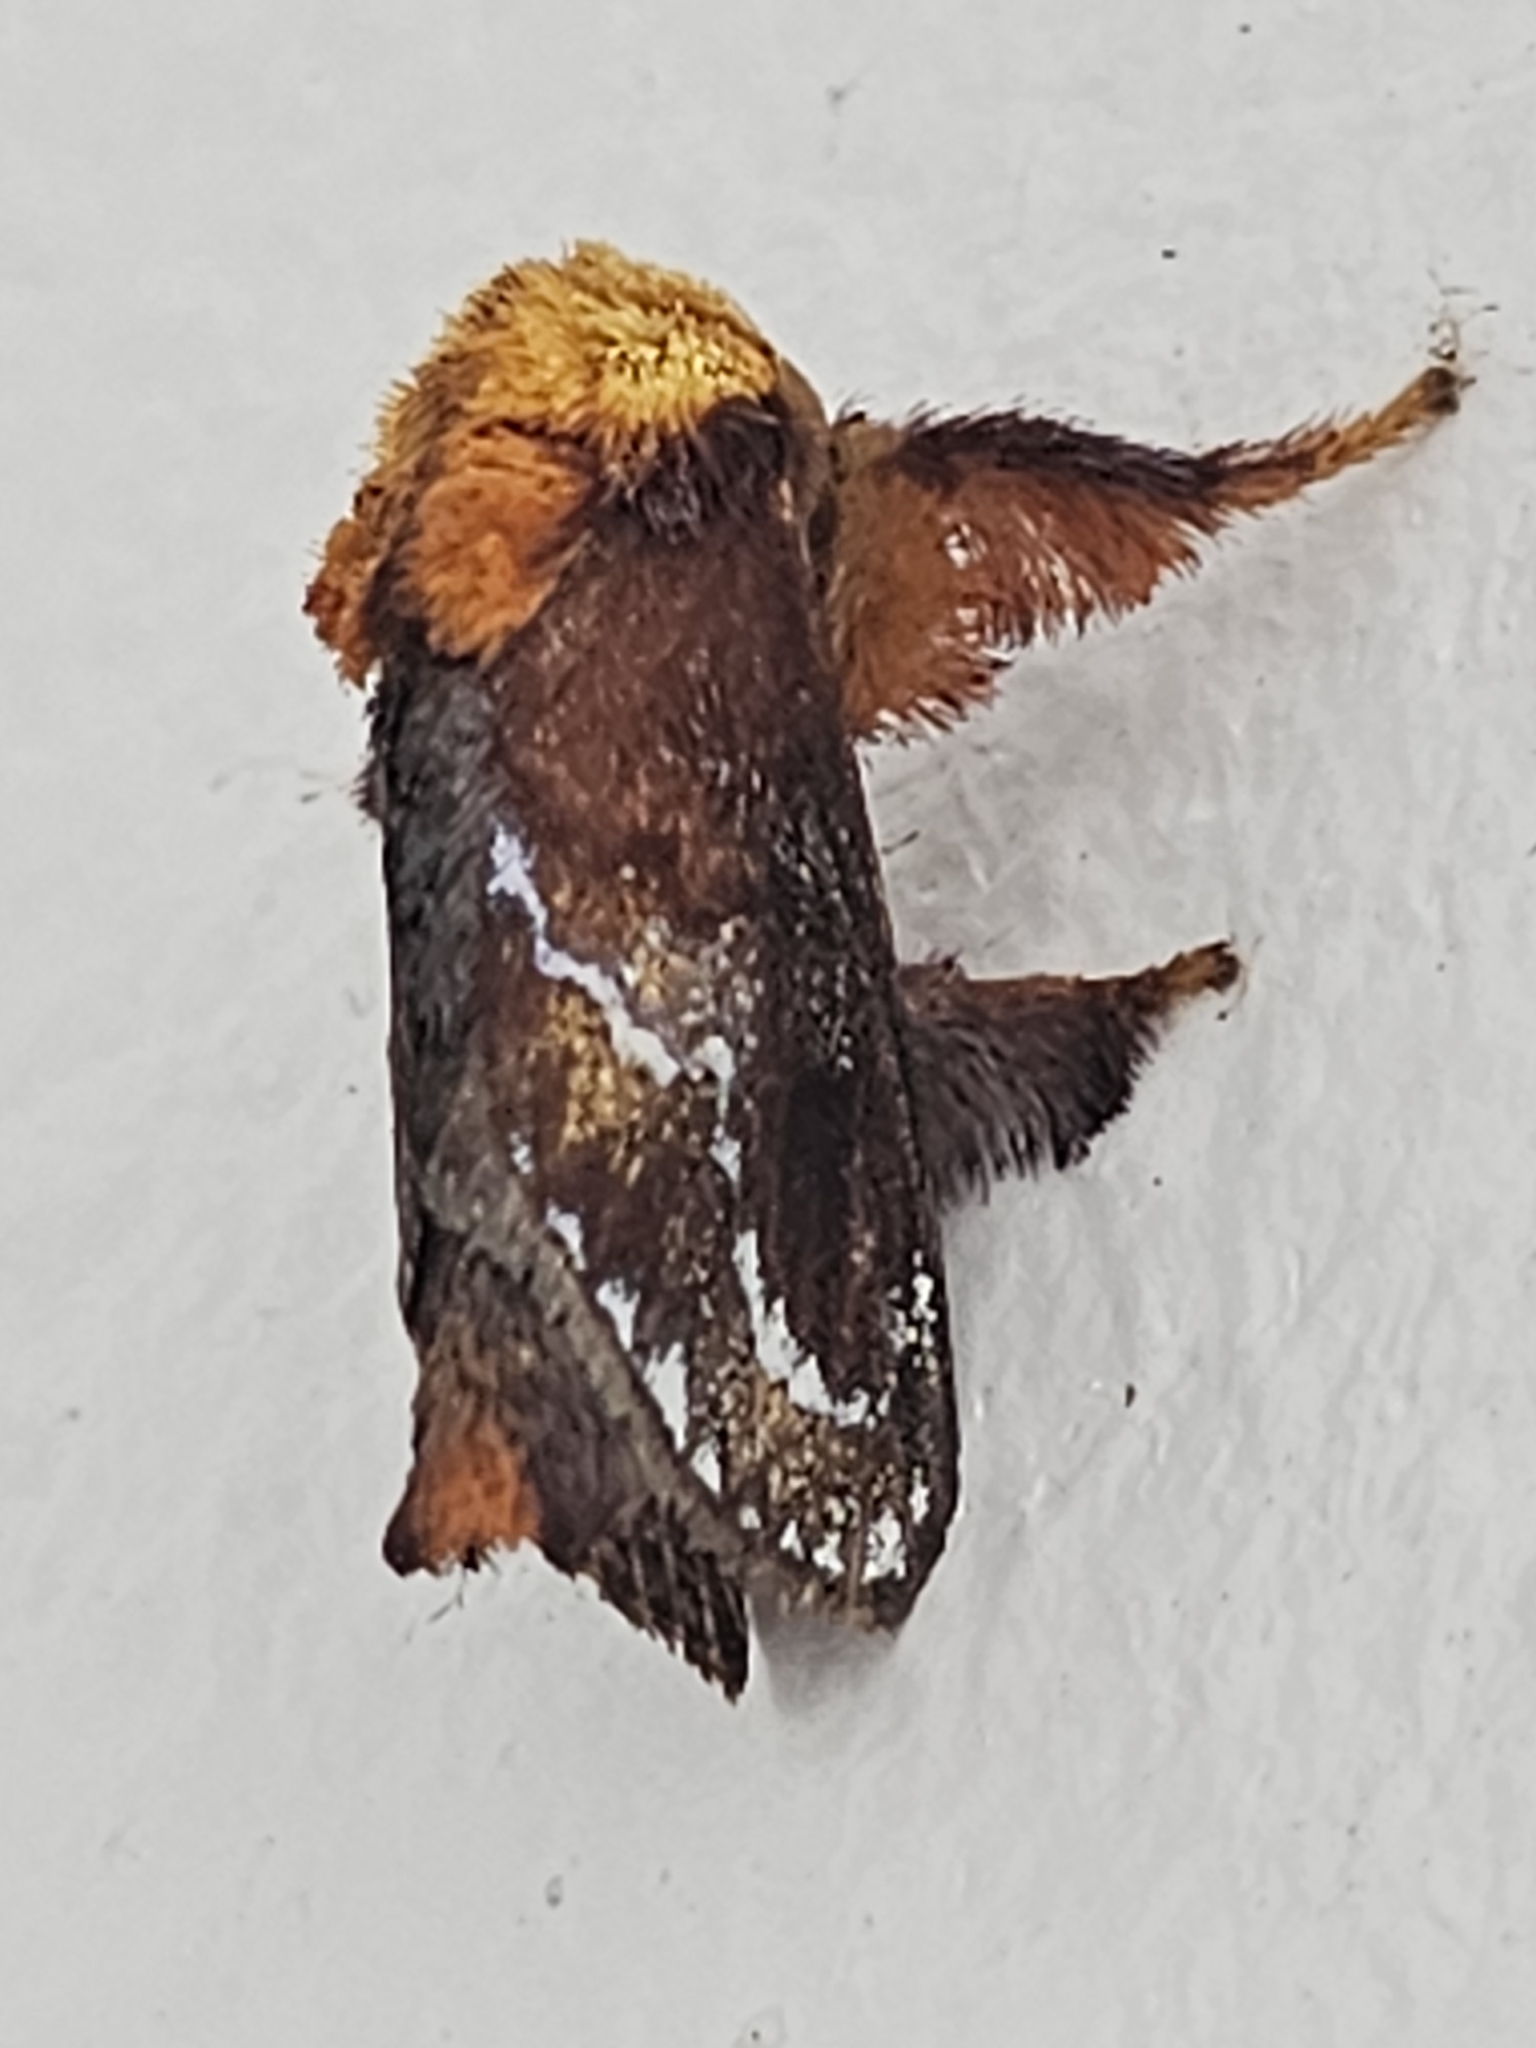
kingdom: Animalia
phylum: Arthropoda
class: Insecta
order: Lepidoptera
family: Limacodidae
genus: Miresa
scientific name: Miresa clarissa
